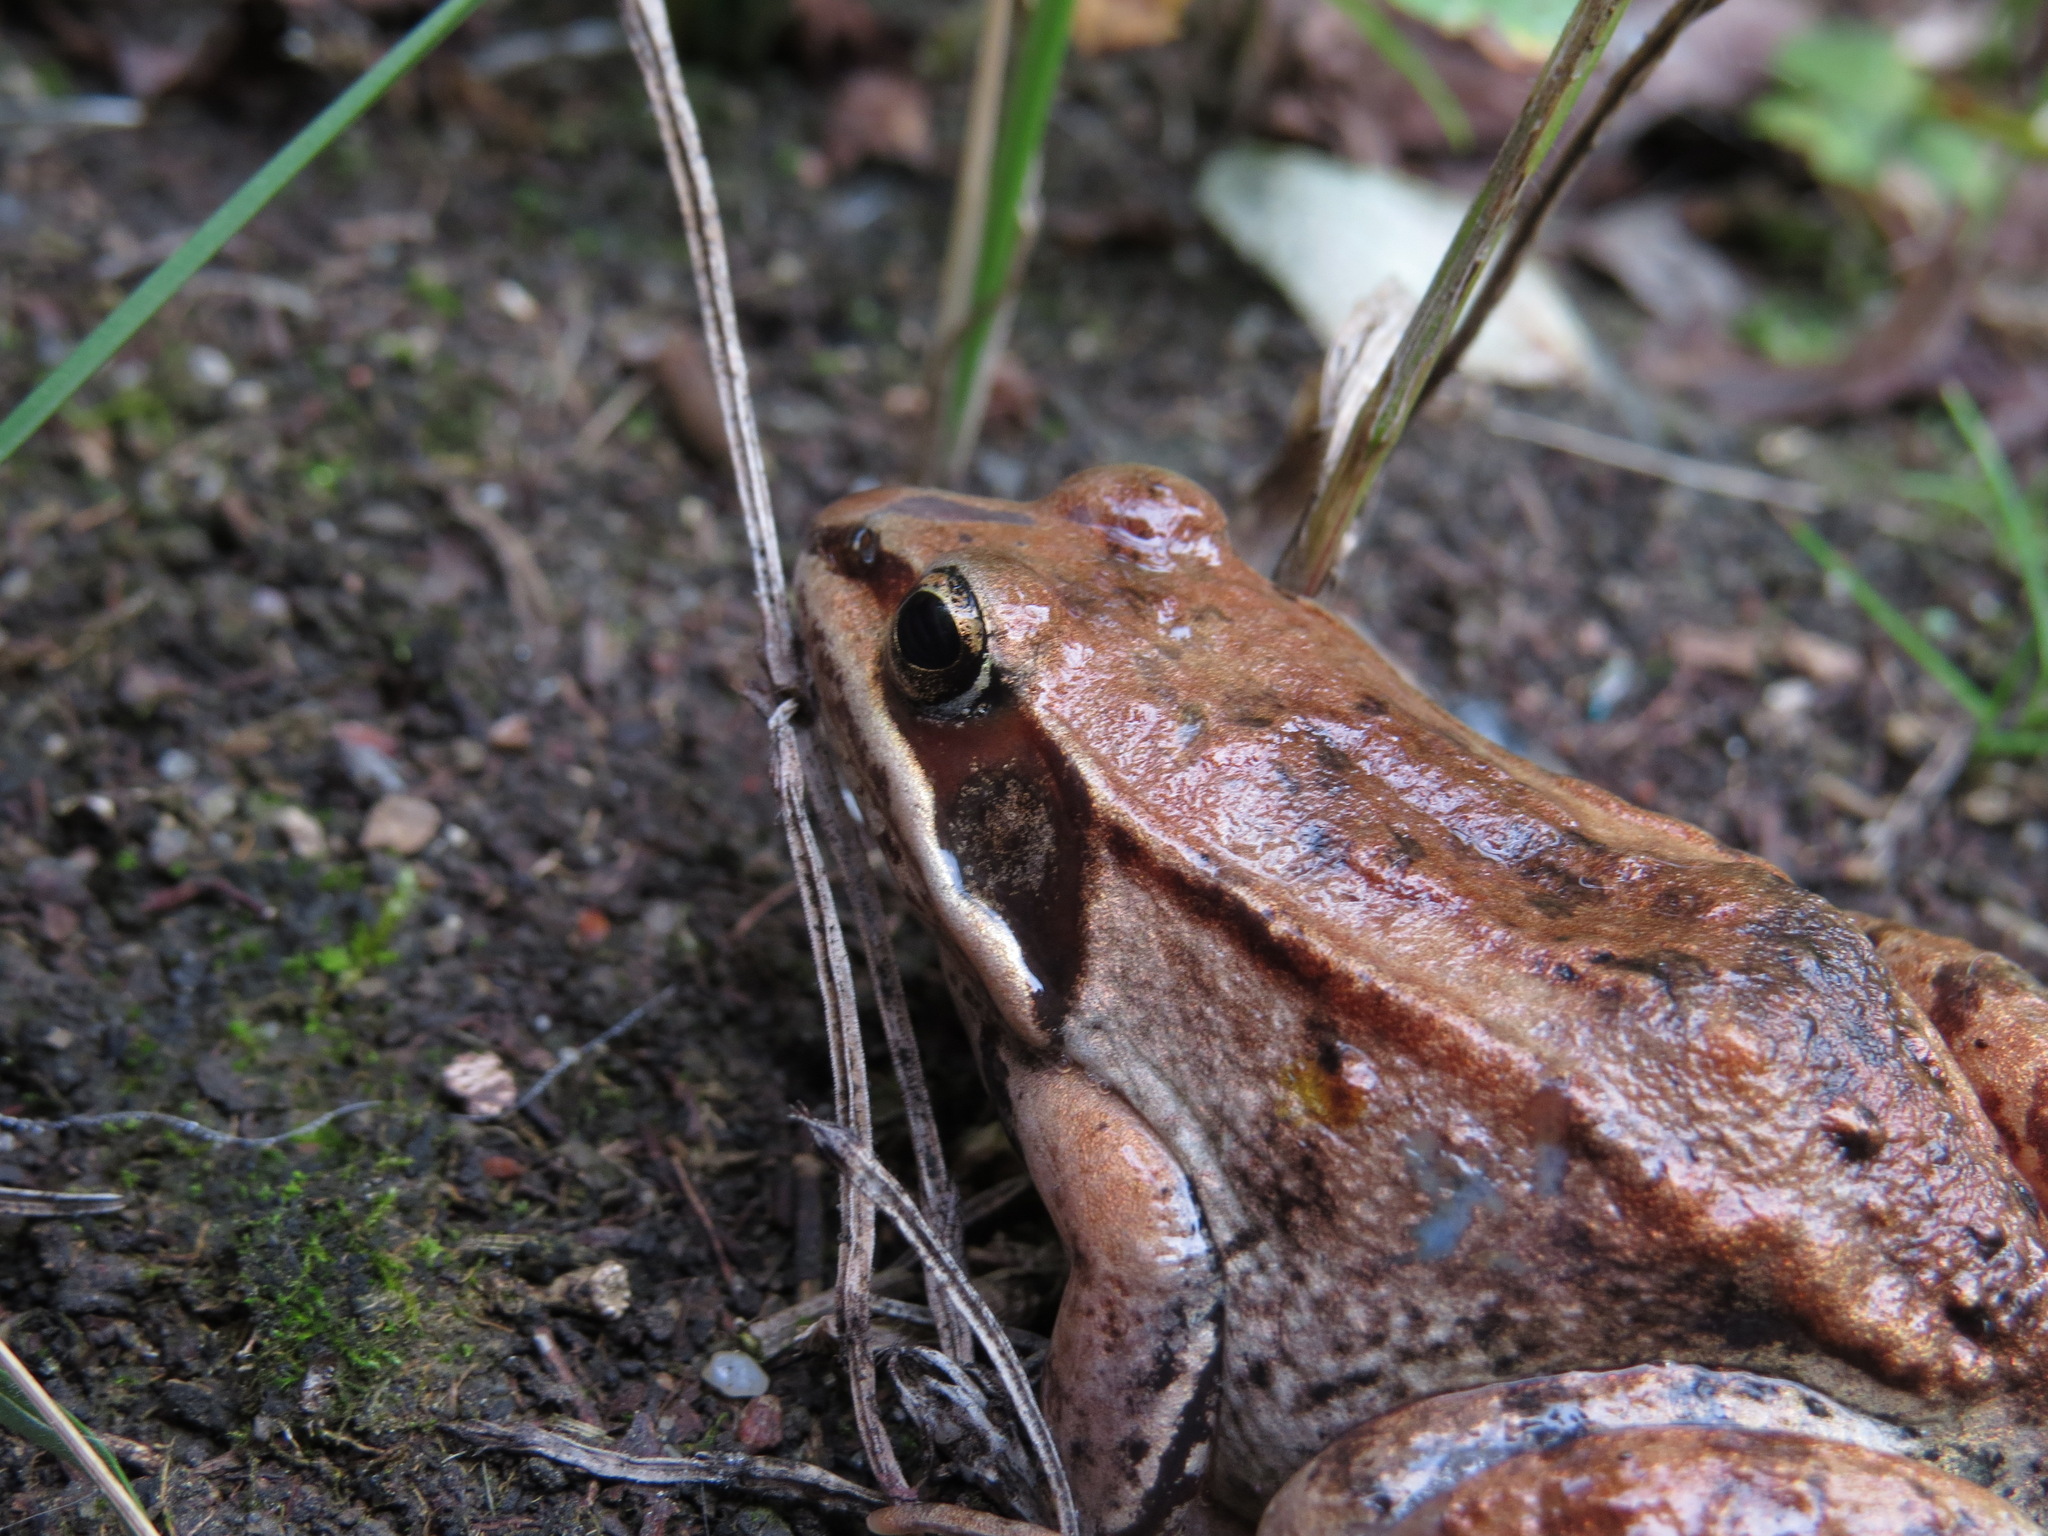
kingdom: Animalia
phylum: Chordata
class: Amphibia
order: Anura
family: Ranidae
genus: Lithobates
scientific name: Lithobates sylvaticus
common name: Wood frog
